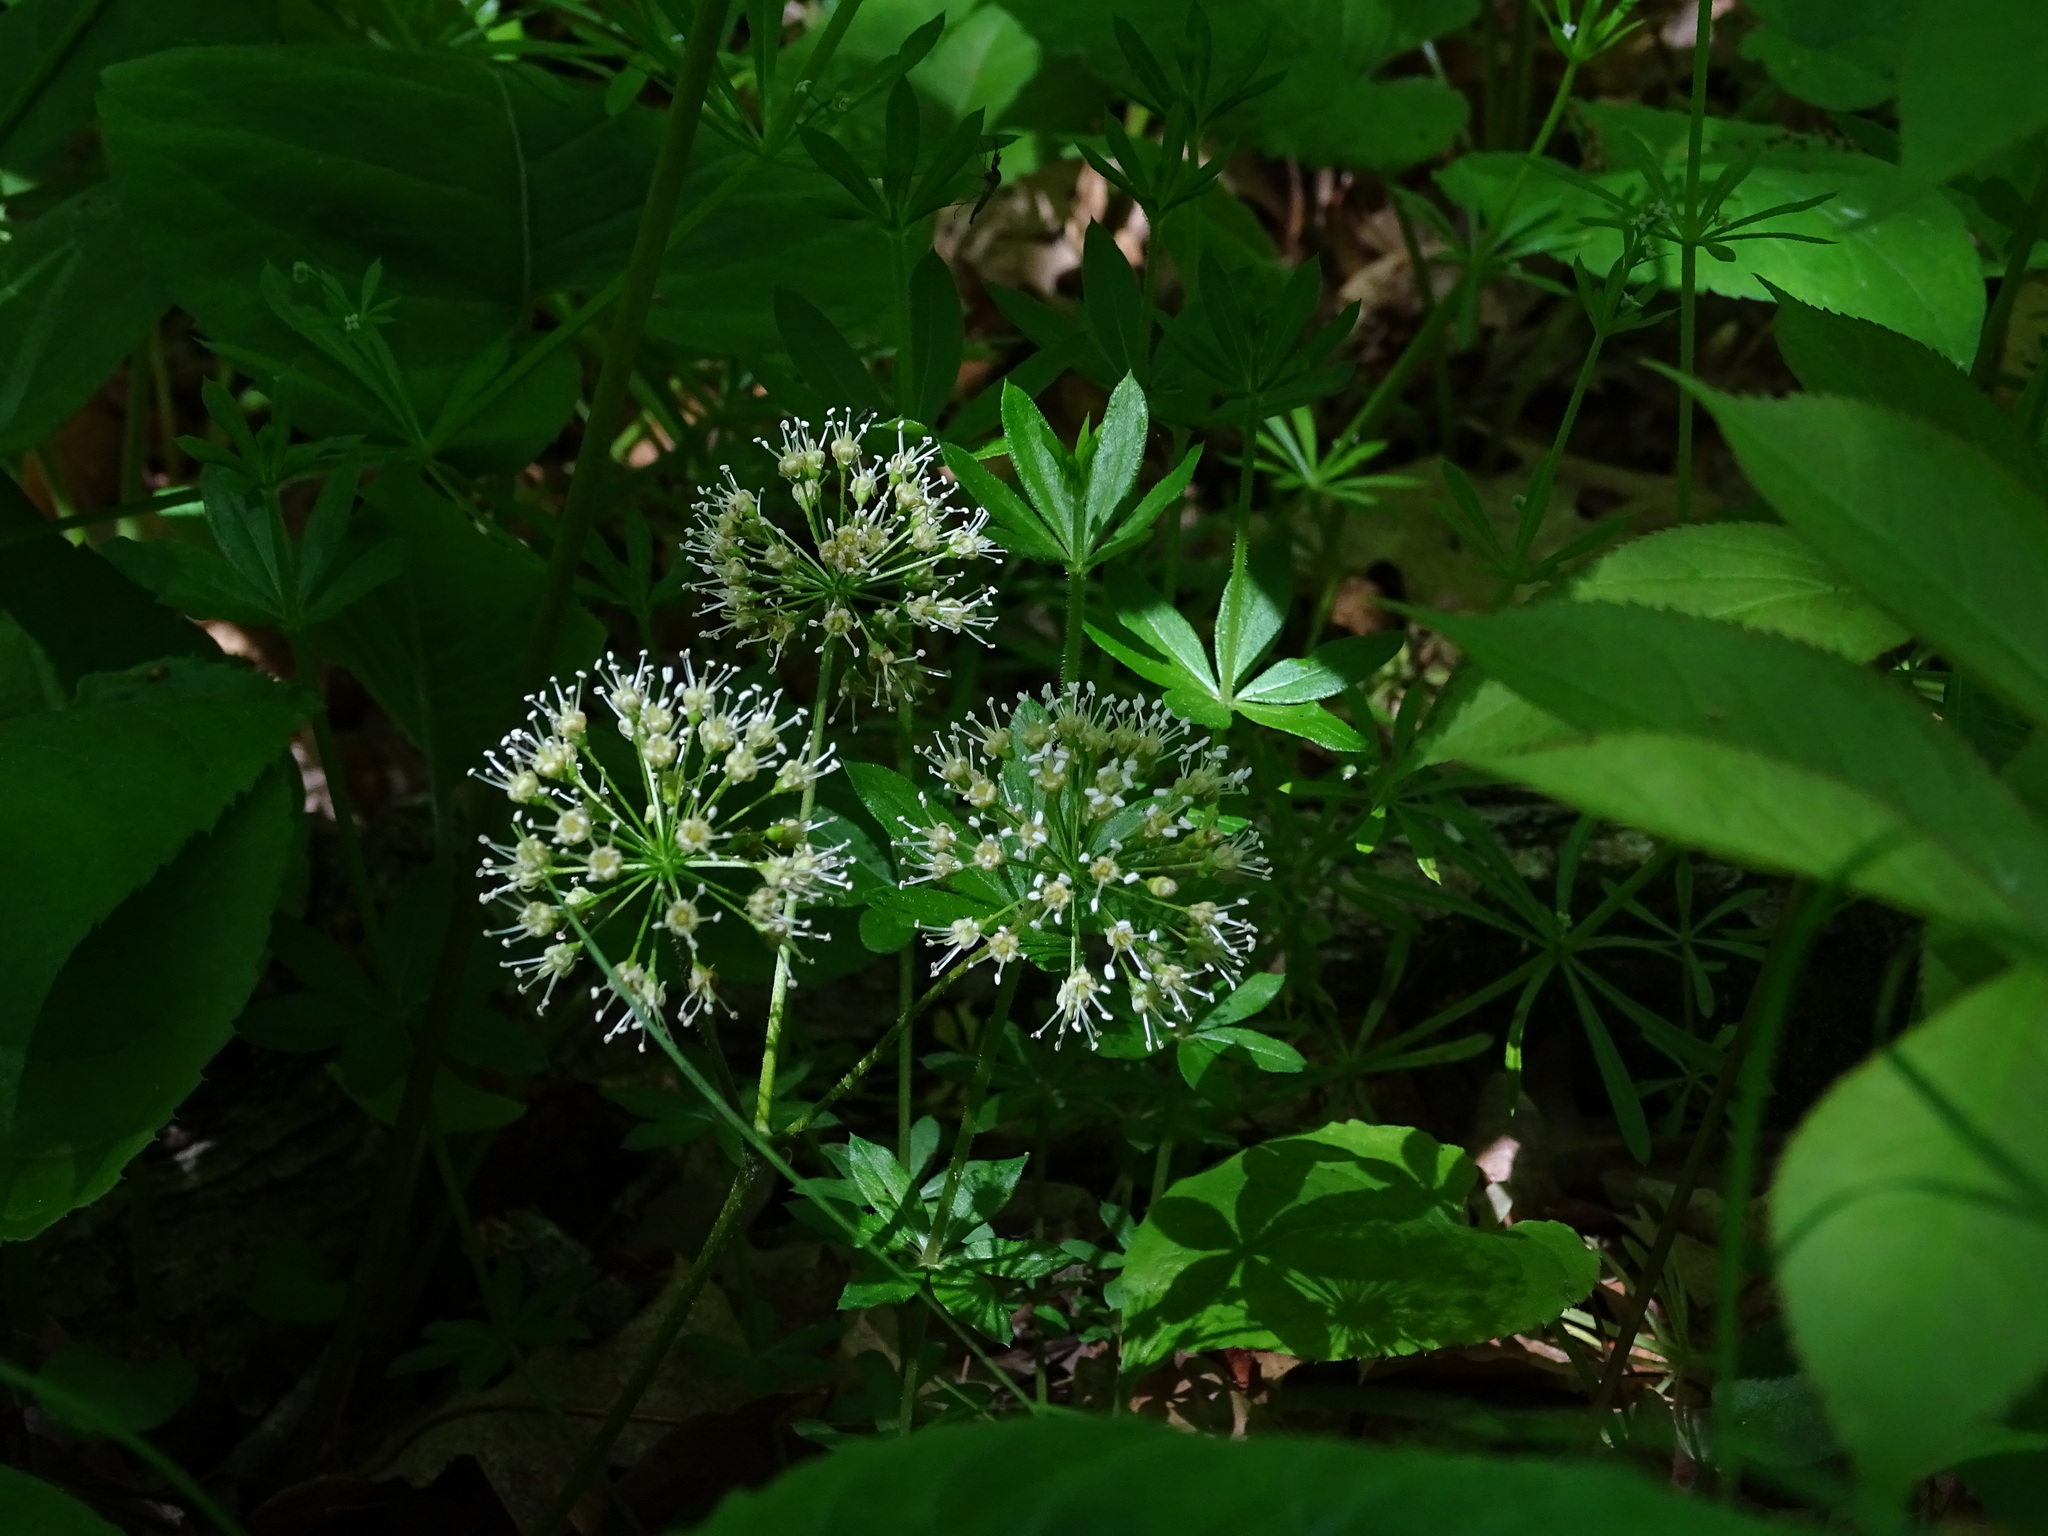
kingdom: Plantae
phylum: Tracheophyta
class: Magnoliopsida
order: Apiales
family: Araliaceae
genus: Aralia
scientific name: Aralia nudicaulis
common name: Wild sarsaparilla
